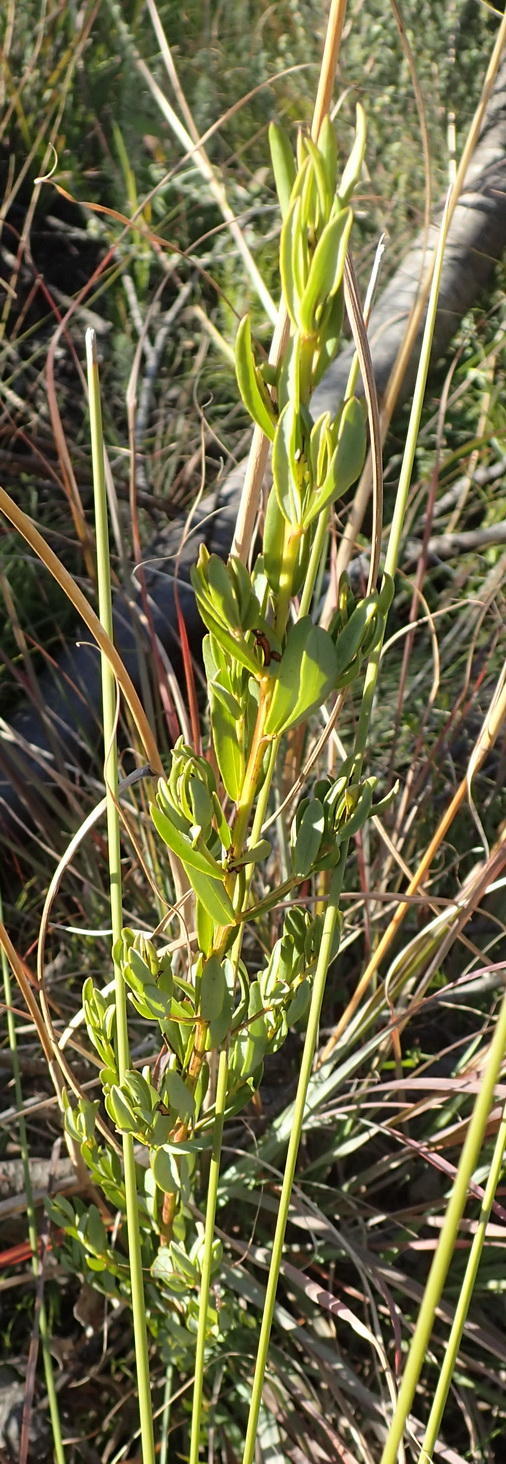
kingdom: Plantae
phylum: Tracheophyta
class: Magnoliopsida
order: Fabales
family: Fabaceae
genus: Cyclopia
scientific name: Cyclopia subternata
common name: Honeybush tea
